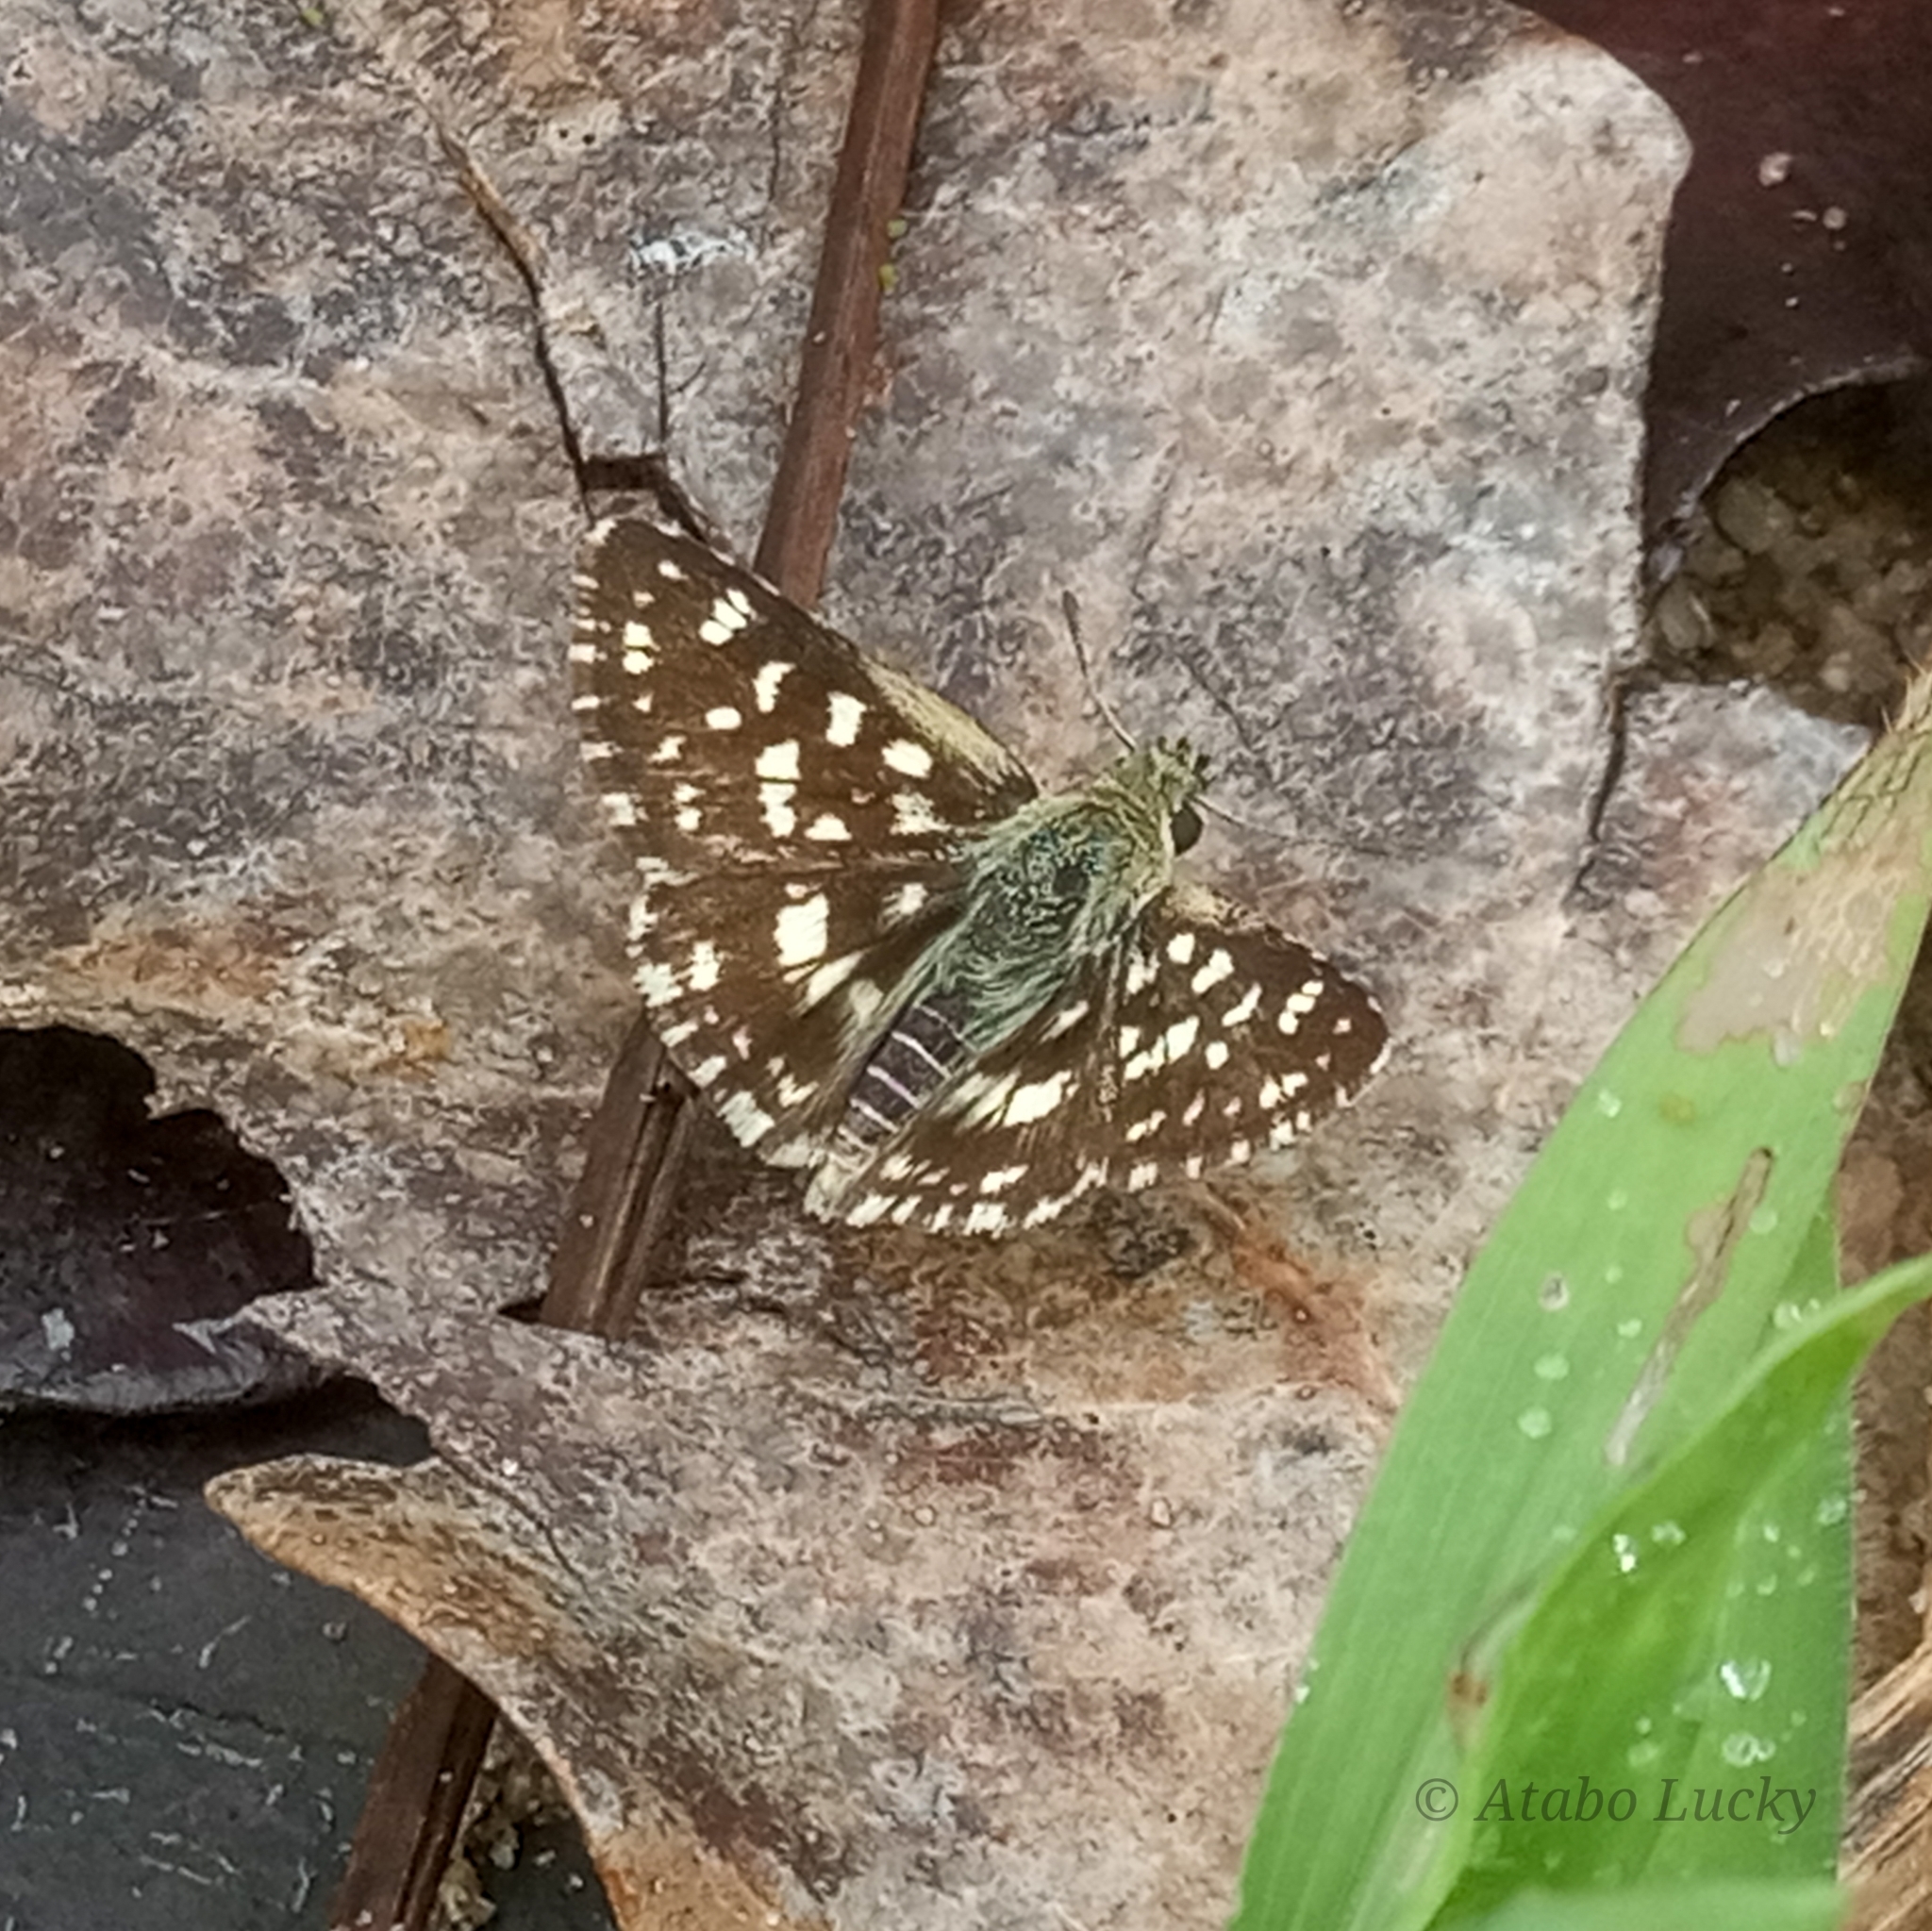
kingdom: Animalia
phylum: Arthropoda
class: Insecta
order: Lepidoptera
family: Hesperiidae
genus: Spialia
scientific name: Spialia diomus
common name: Common sandman
